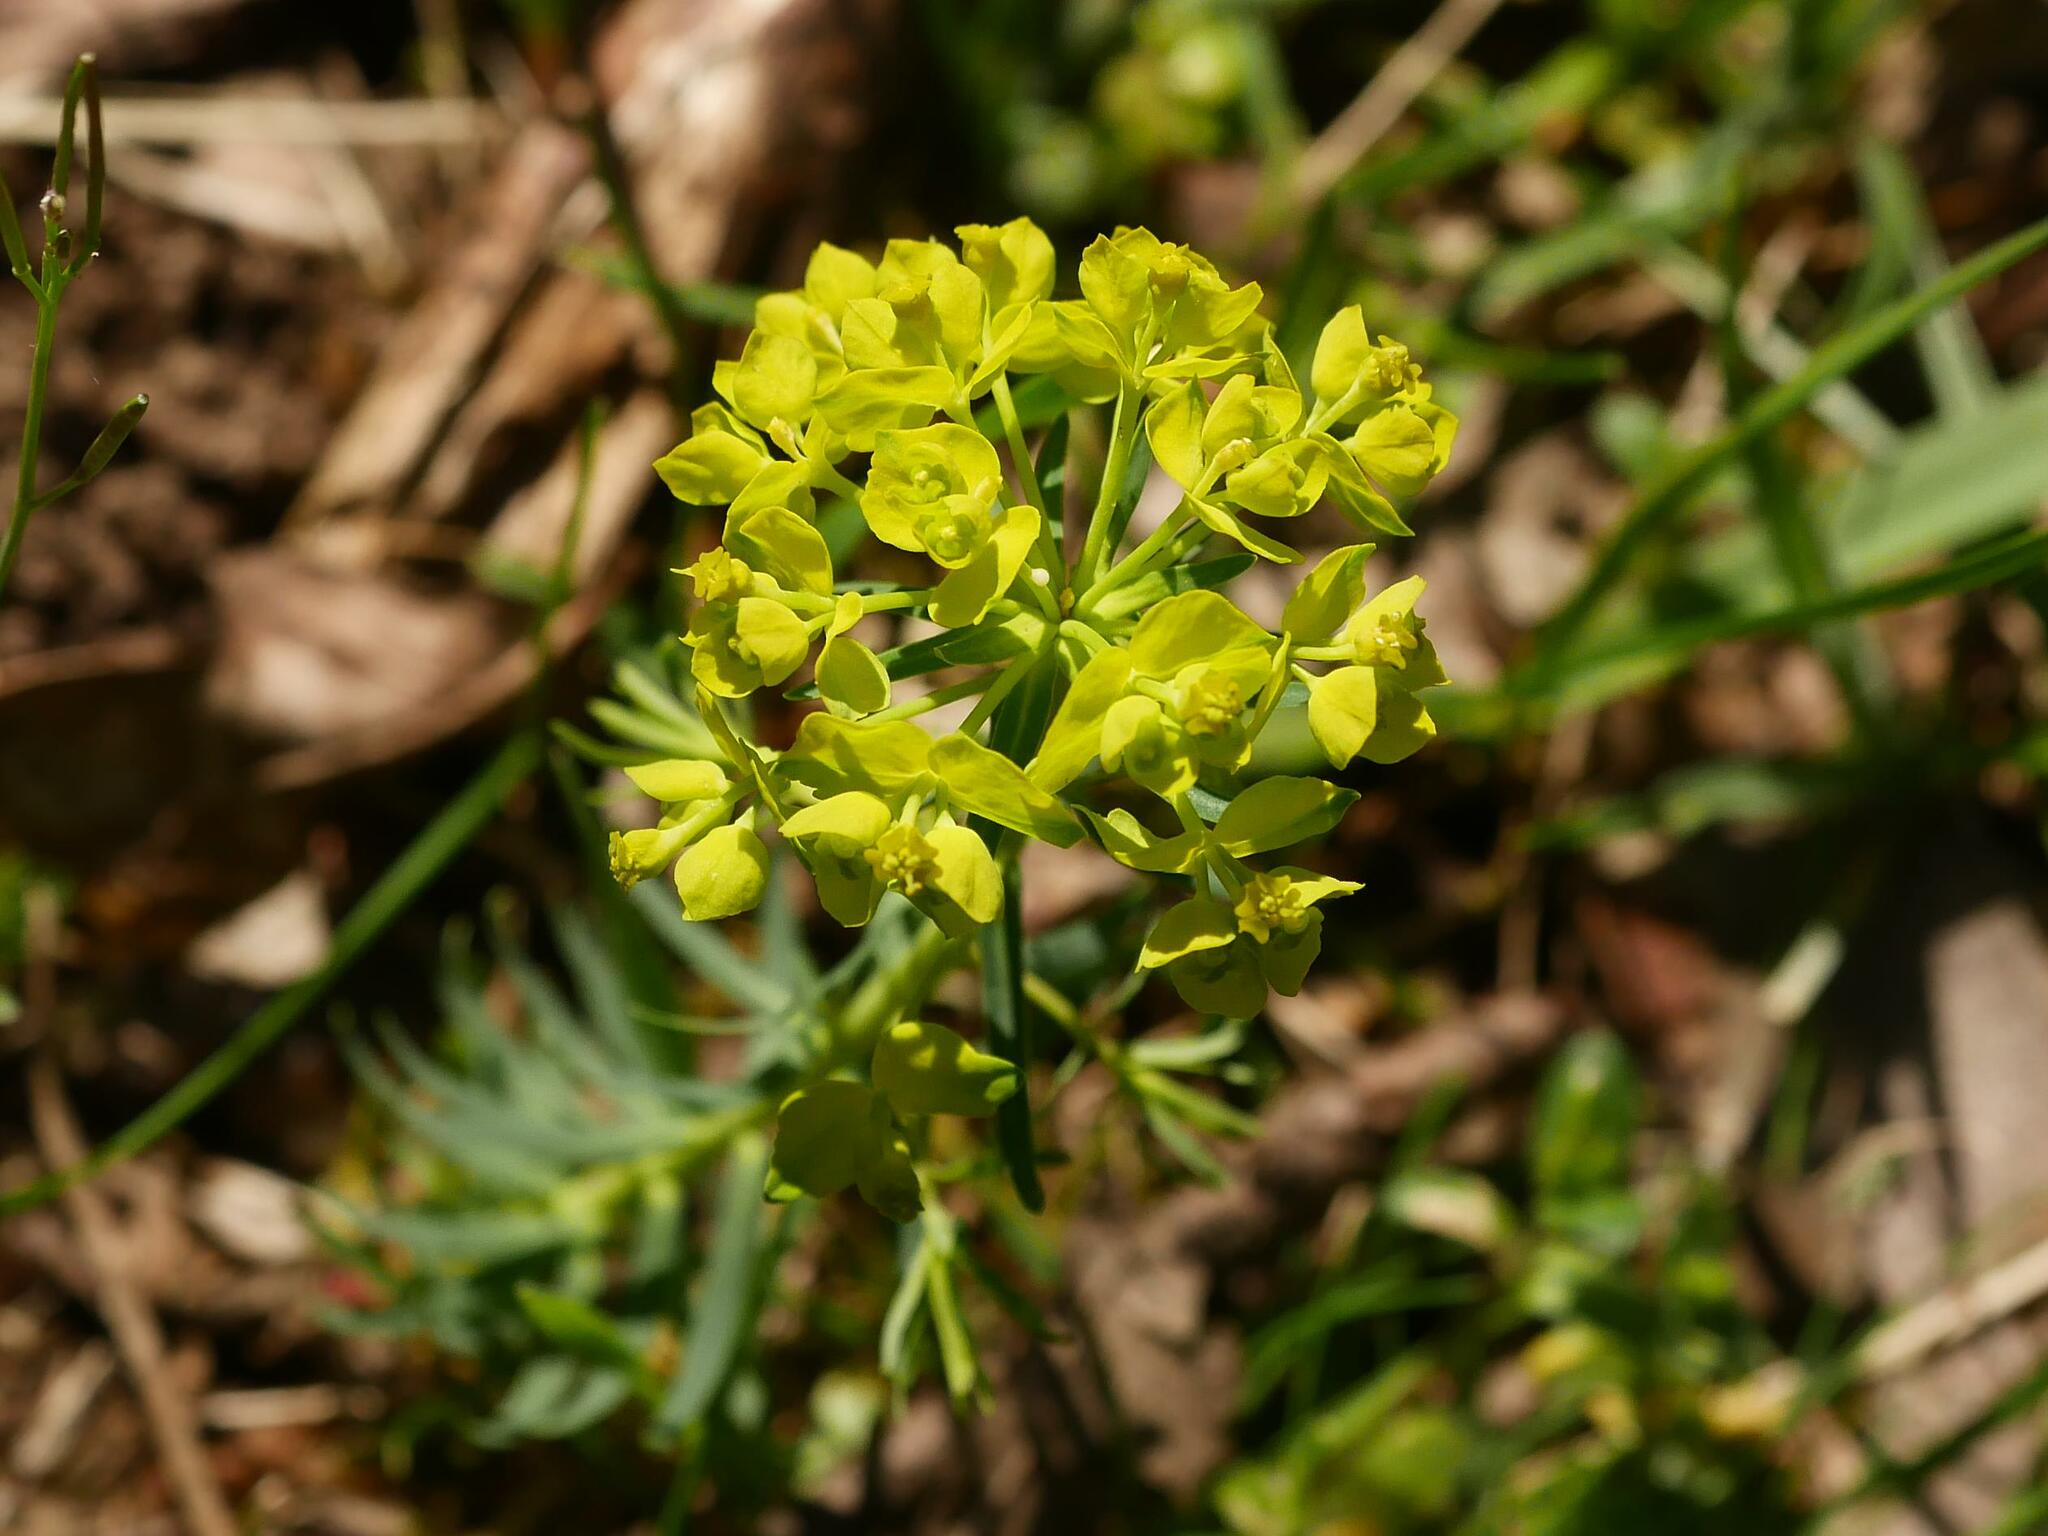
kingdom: Plantae
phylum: Tracheophyta
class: Magnoliopsida
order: Malpighiales
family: Euphorbiaceae
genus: Euphorbia
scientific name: Euphorbia cyparissias
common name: Cypress spurge
